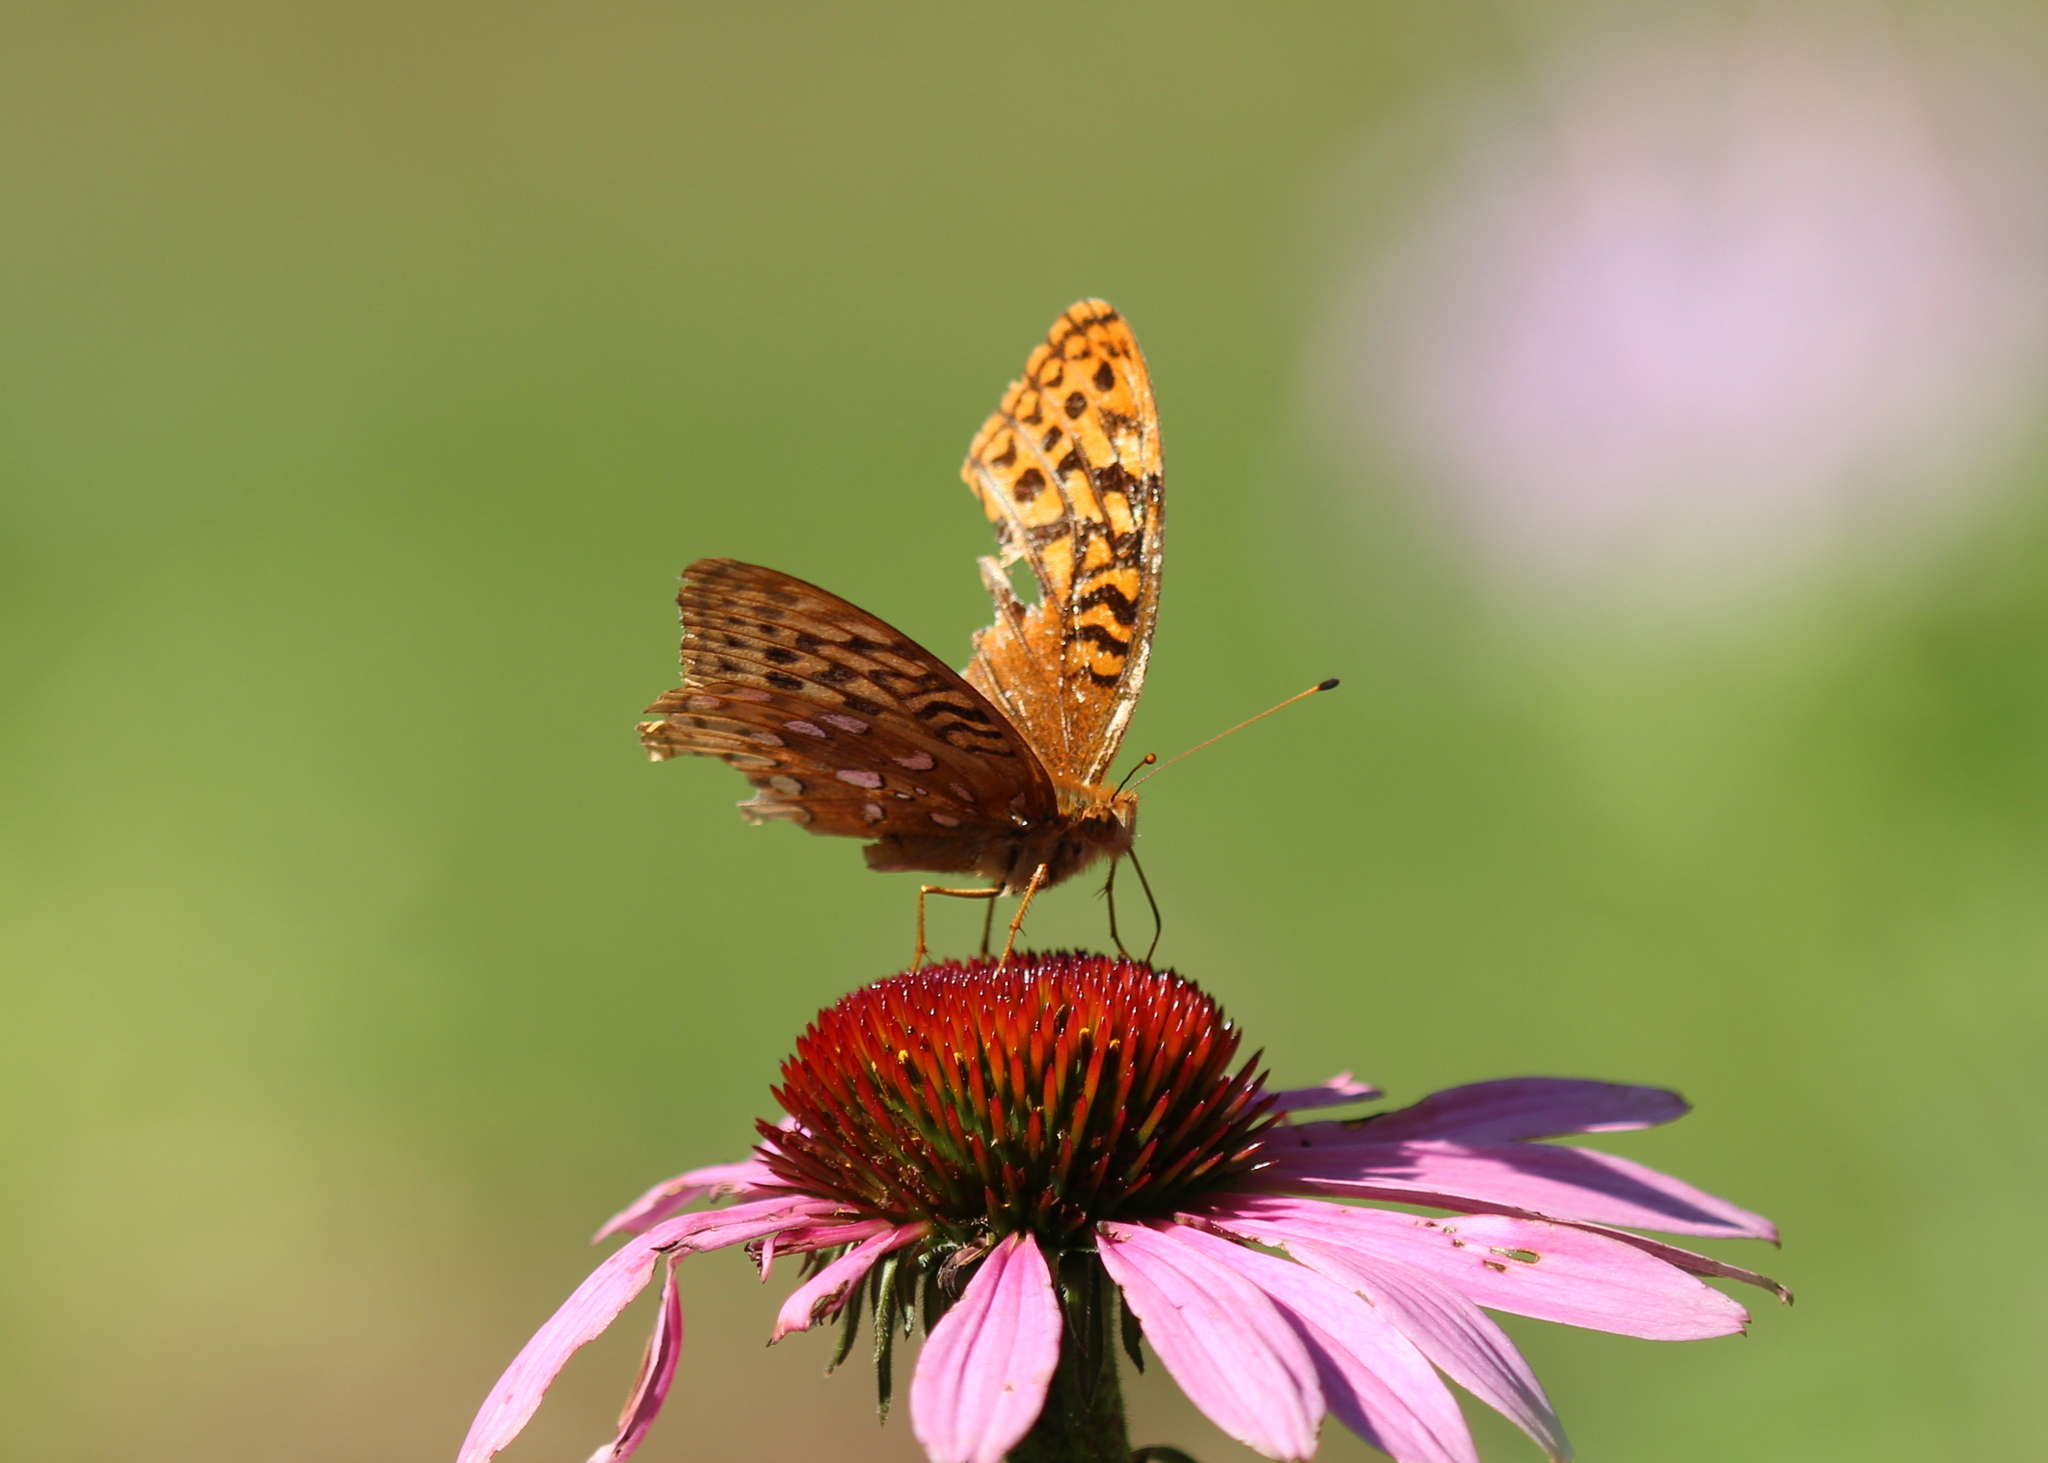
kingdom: Animalia
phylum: Arthropoda
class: Insecta
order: Lepidoptera
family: Nymphalidae
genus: Speyeria
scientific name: Speyeria cybele
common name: Great spangled fritillary
